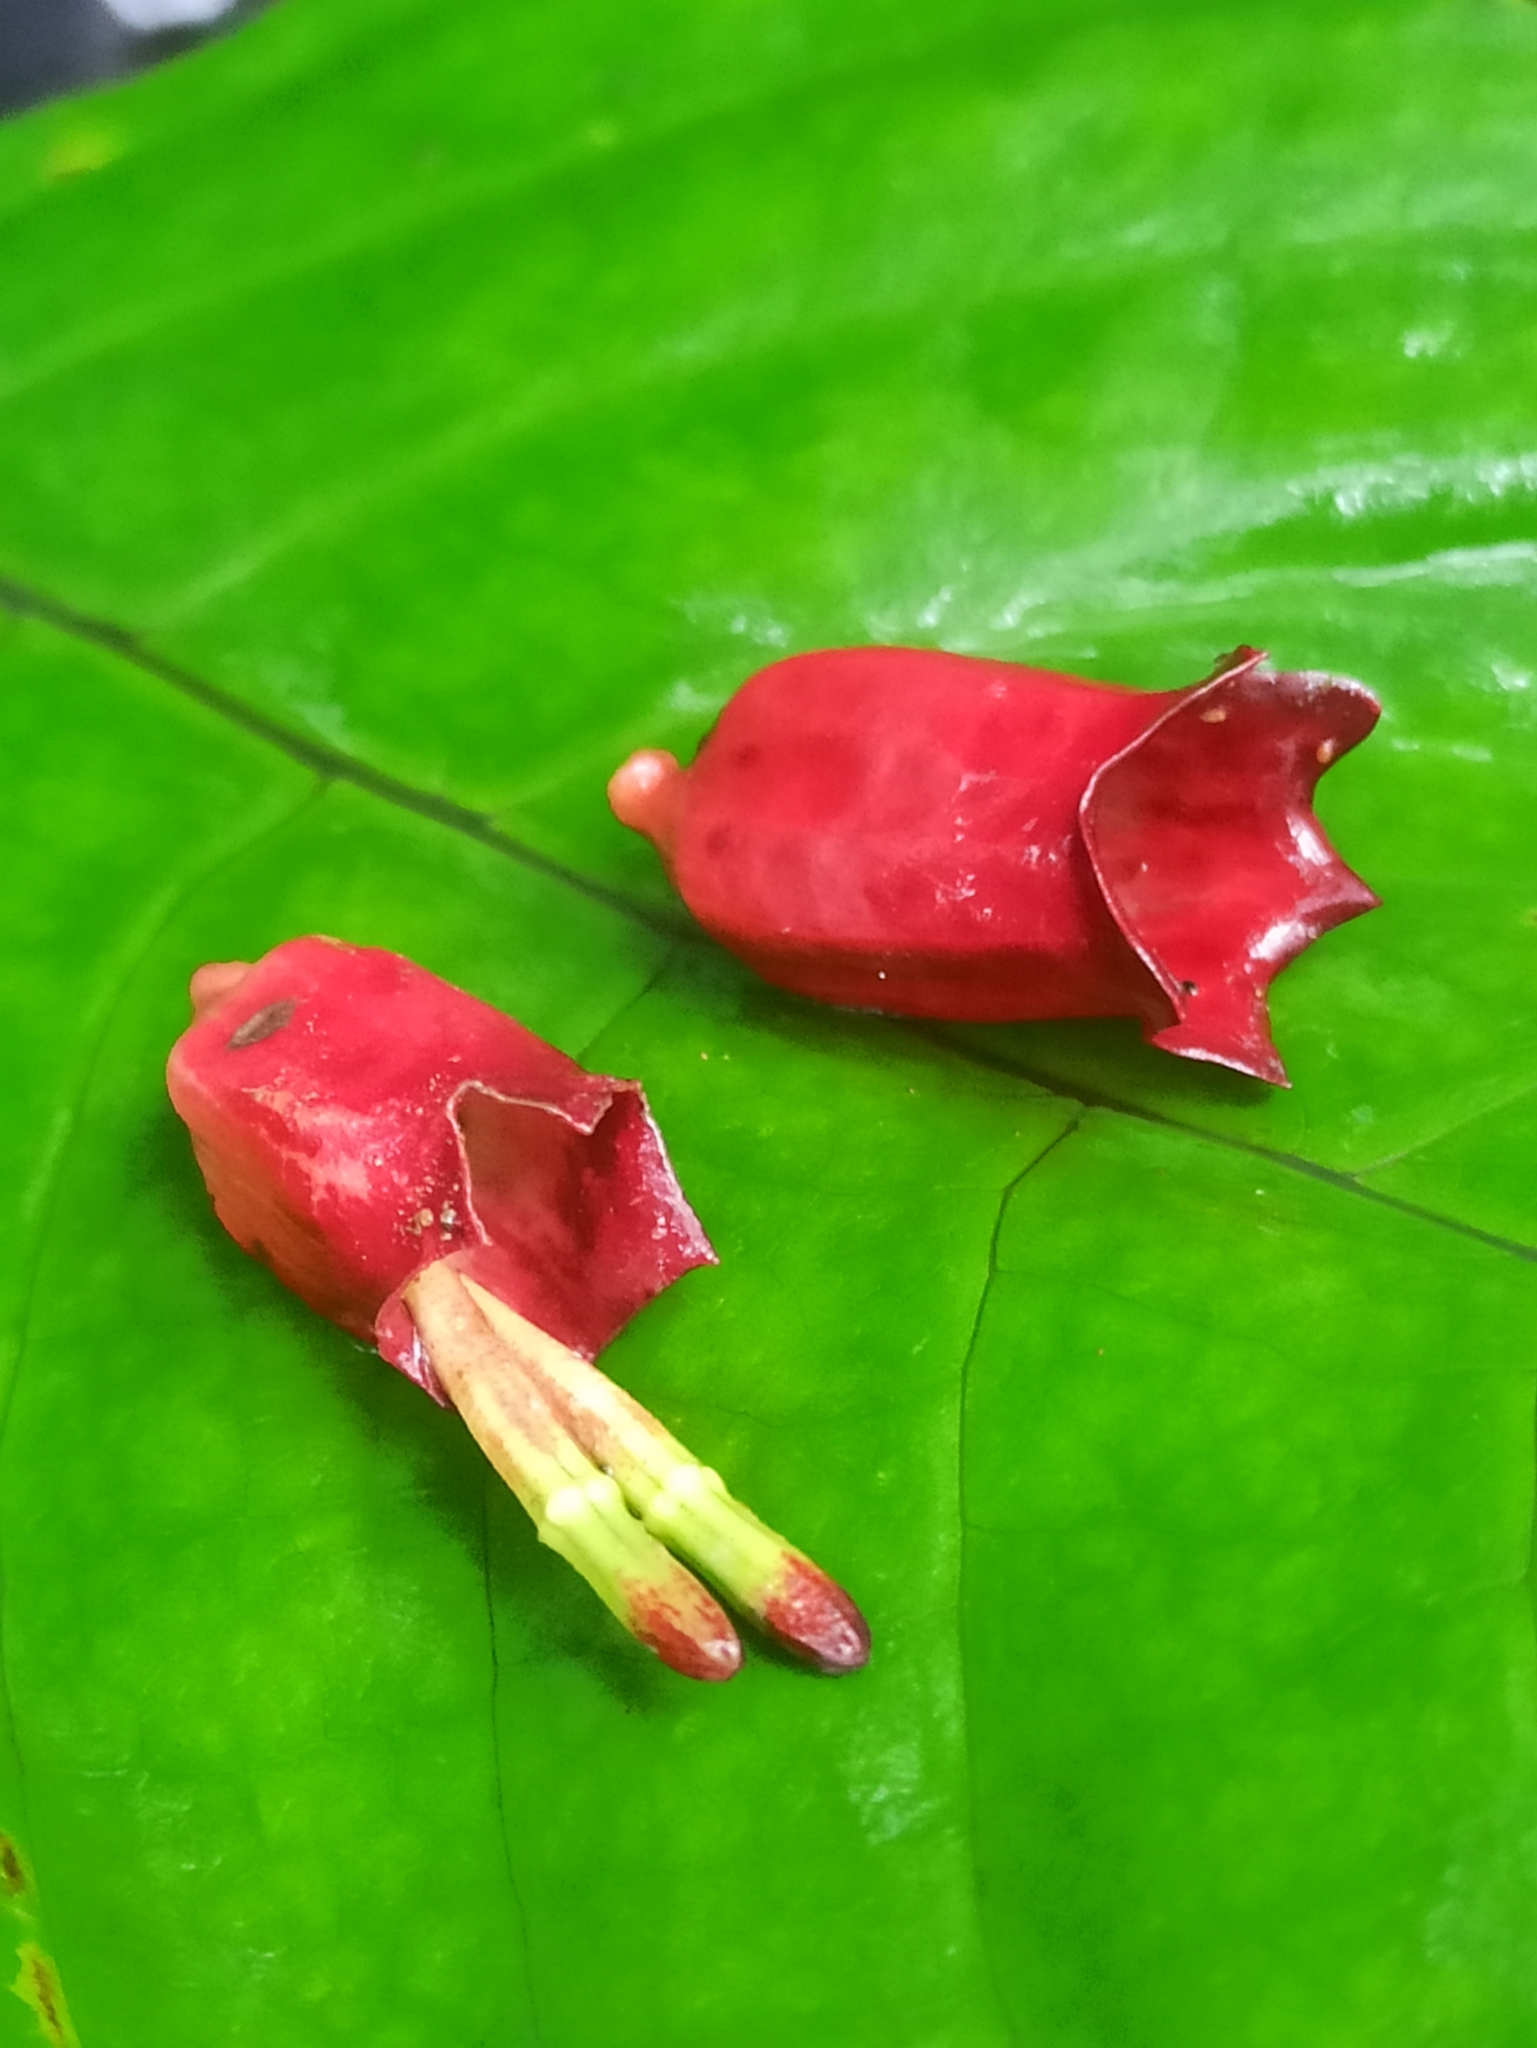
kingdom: Plantae
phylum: Tracheophyta
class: Magnoliopsida
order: Santalales
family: Loranthaceae
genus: Tolypanthus
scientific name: Tolypanthus lagenifer
